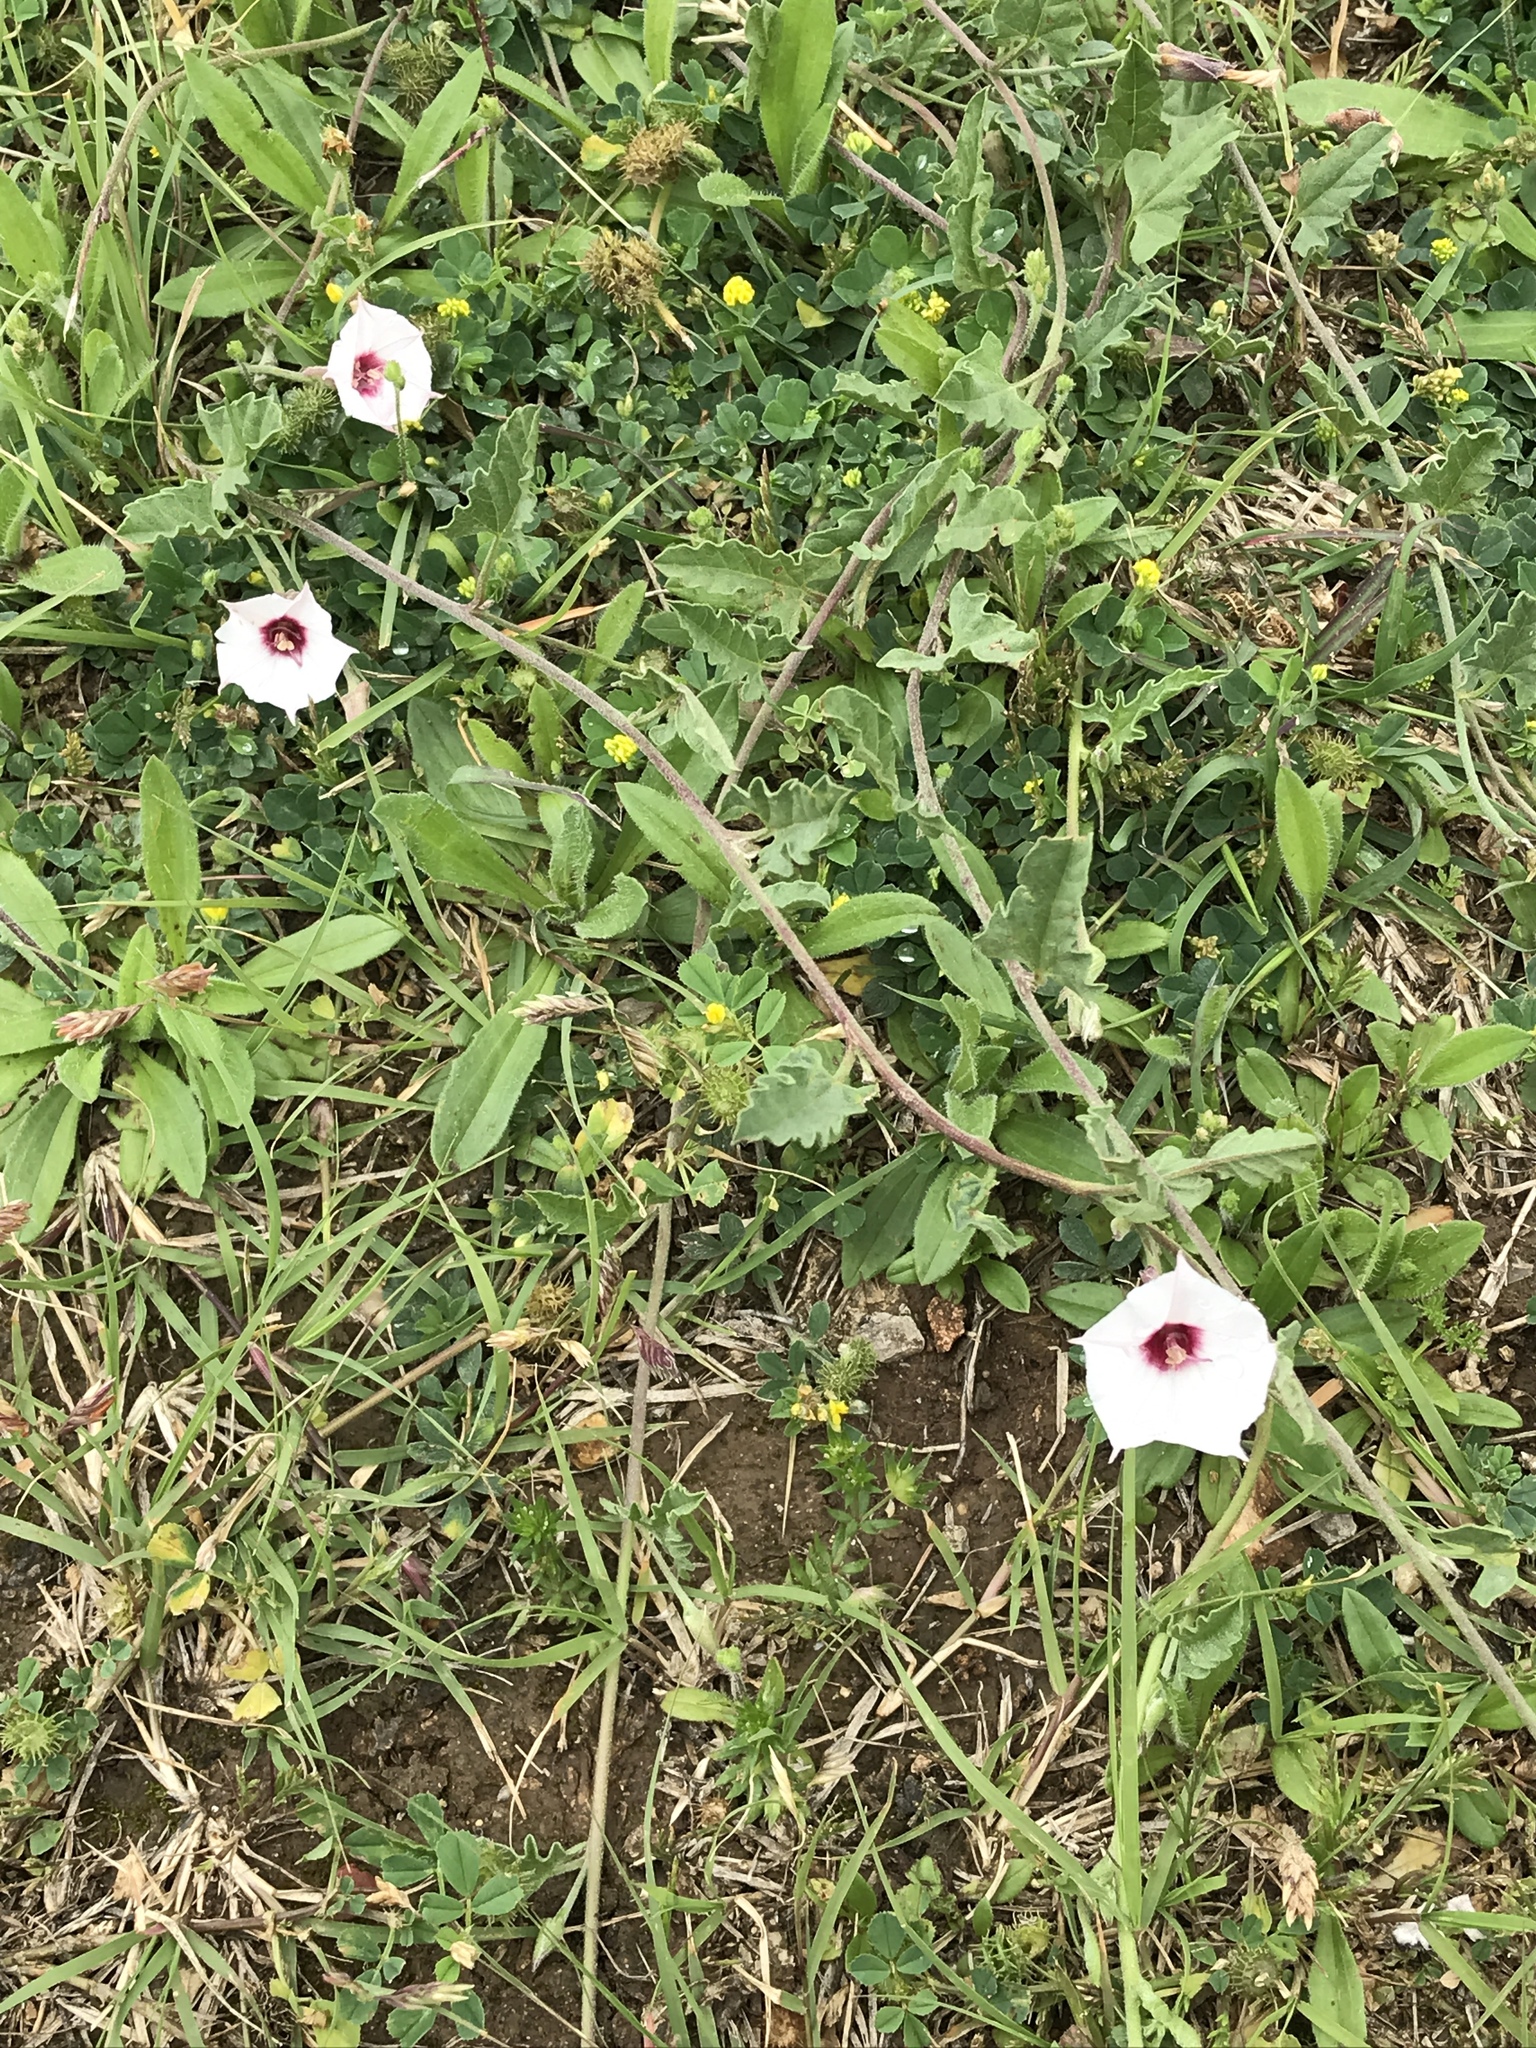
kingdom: Plantae
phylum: Tracheophyta
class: Magnoliopsida
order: Solanales
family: Convolvulaceae
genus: Convolvulus
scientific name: Convolvulus equitans
